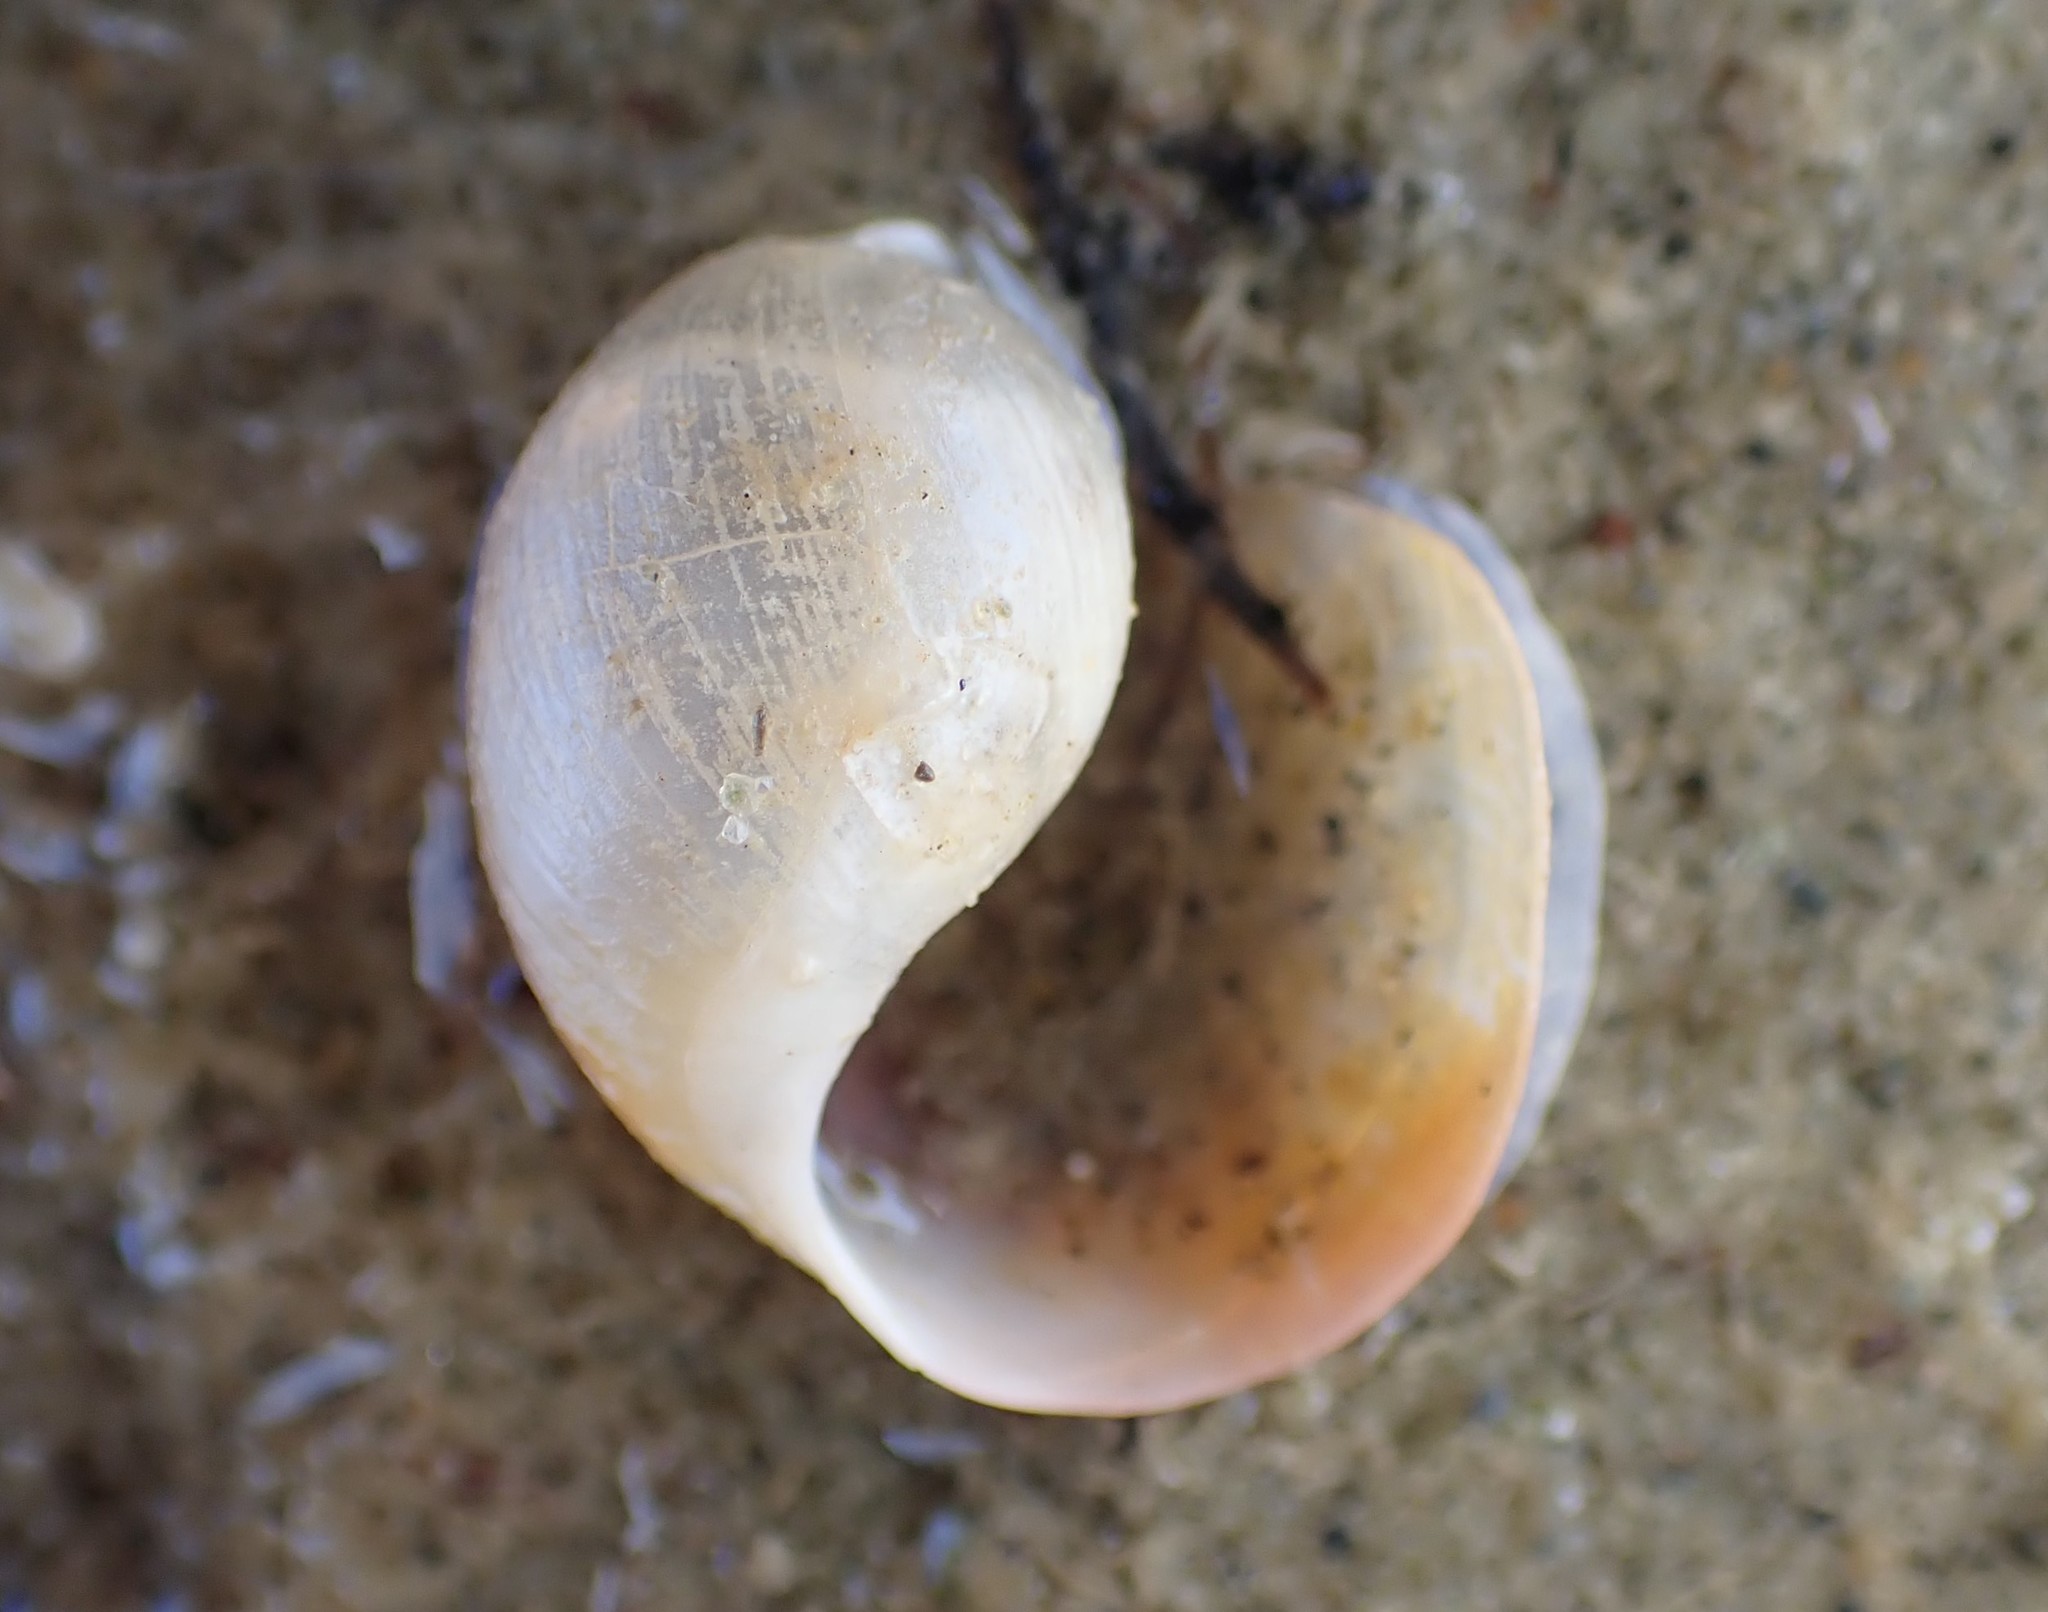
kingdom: Animalia
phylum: Mollusca
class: Gastropoda
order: Cephalaspidea
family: Haminoeidae
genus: Papawera
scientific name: Papawera zelandiae
